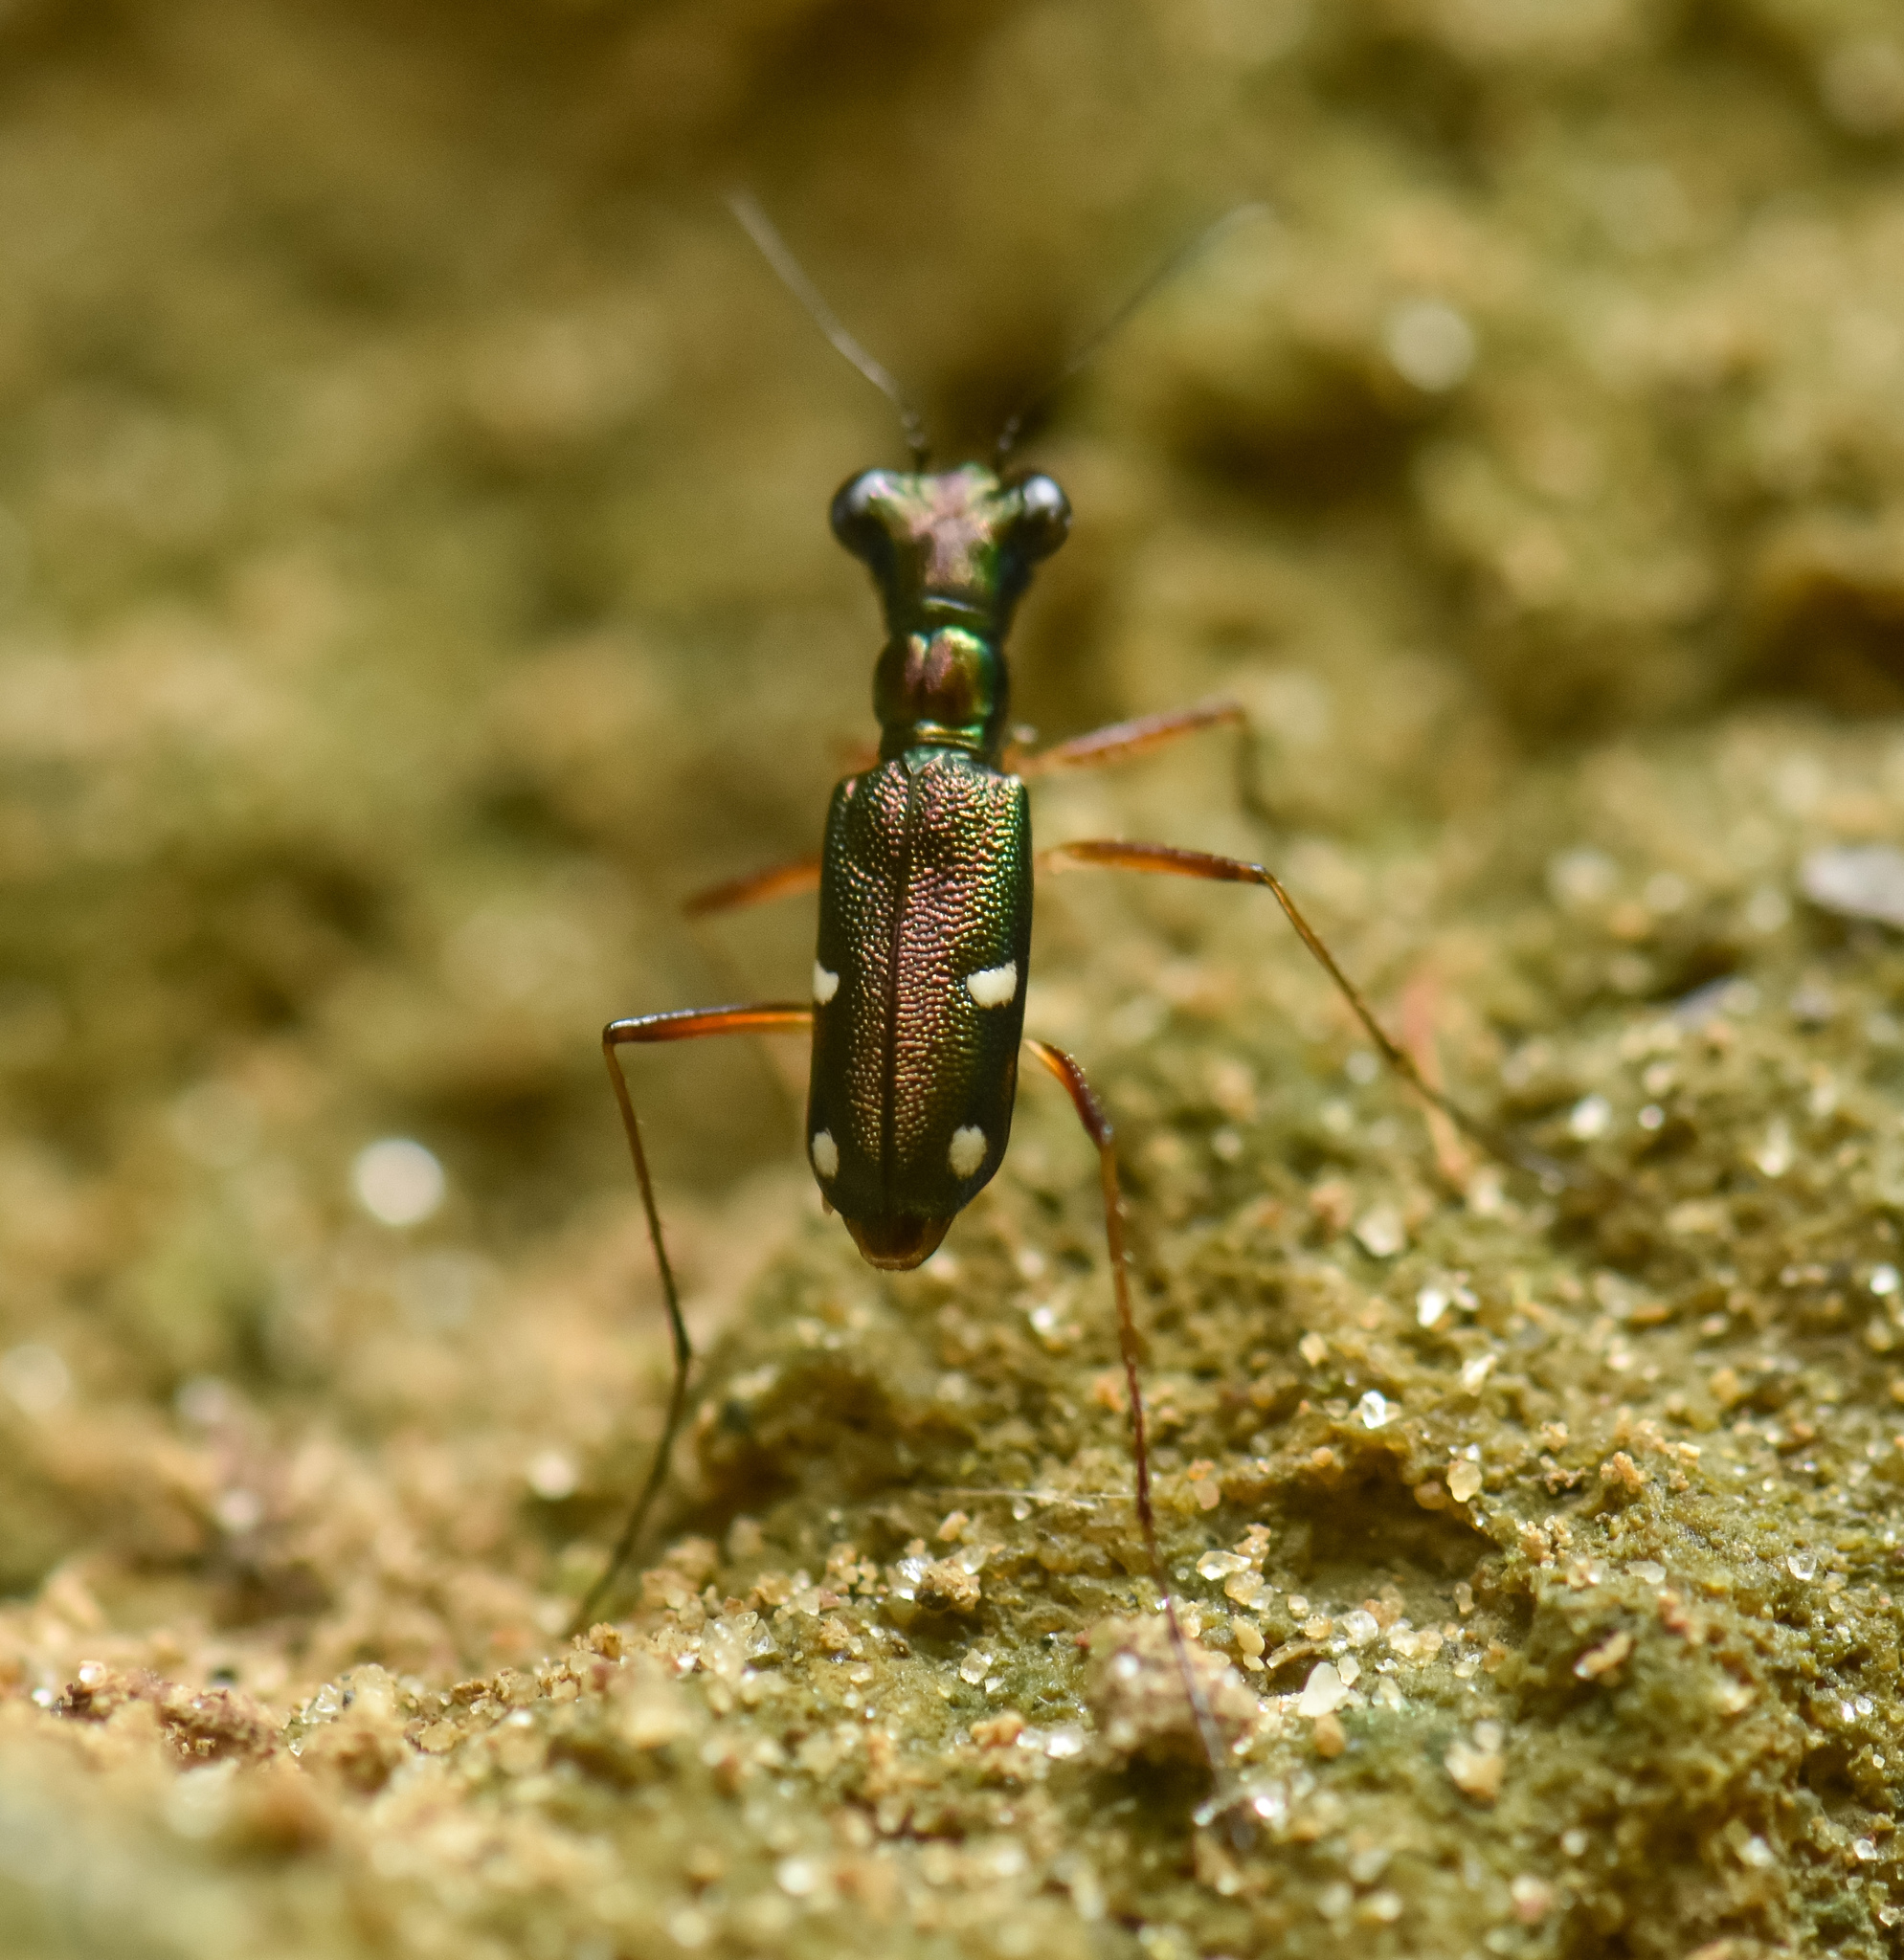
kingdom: Animalia
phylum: Arthropoda
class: Insecta
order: Coleoptera
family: Carabidae
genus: Pronyssa
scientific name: Pronyssa montanea
